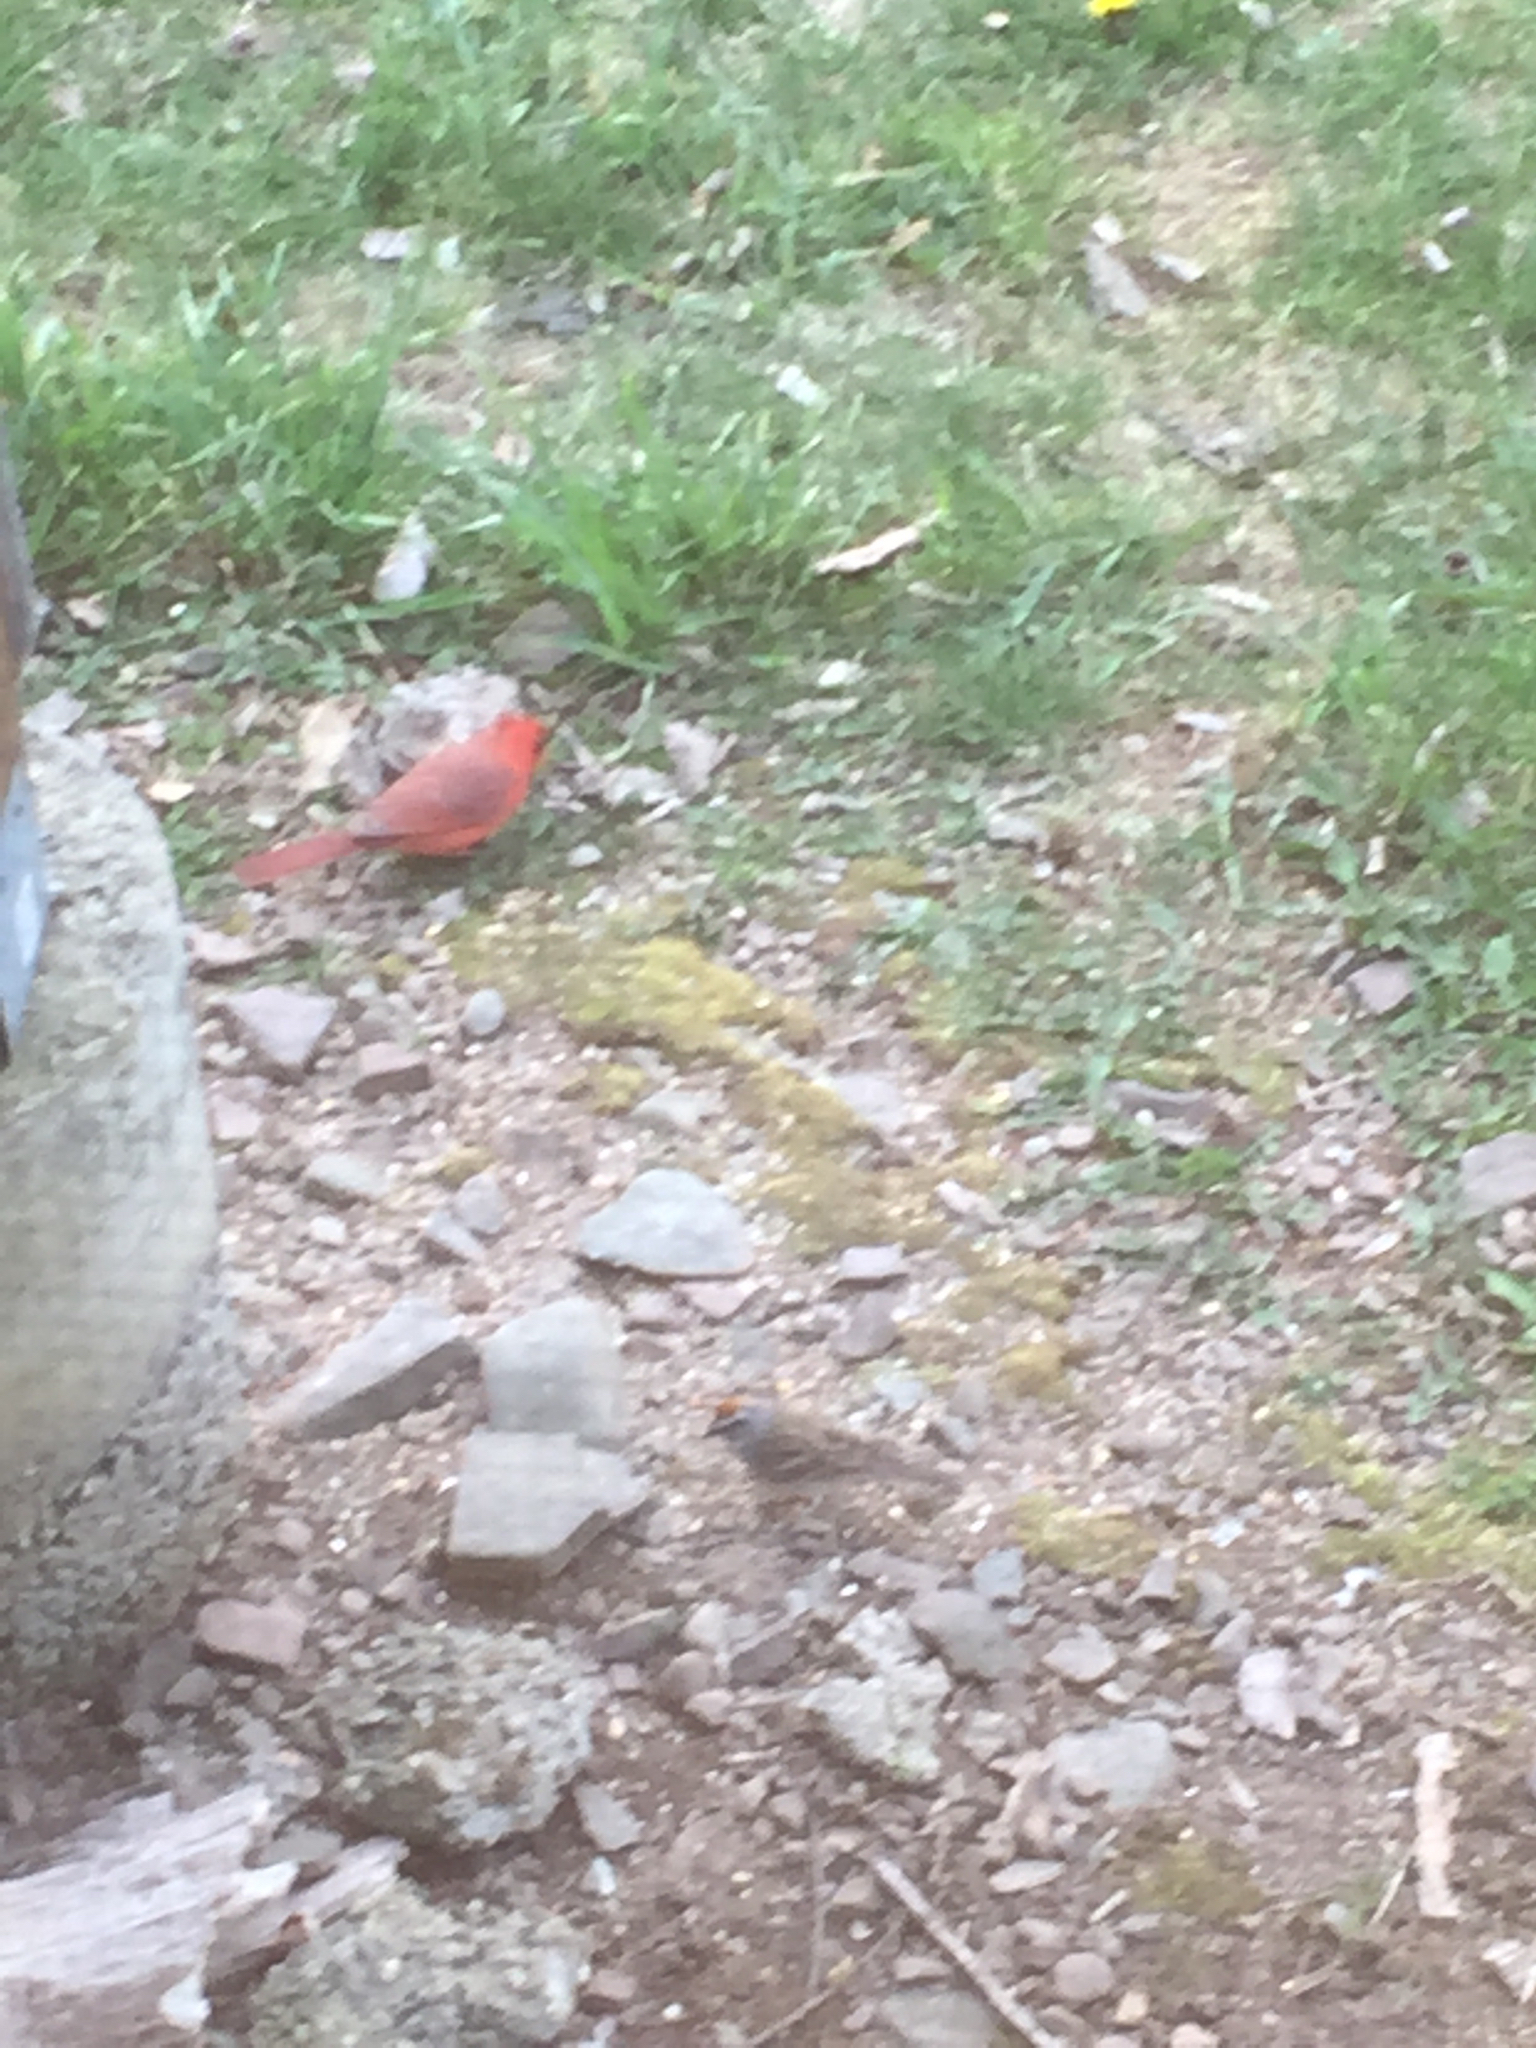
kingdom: Animalia
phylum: Chordata
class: Aves
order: Passeriformes
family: Cardinalidae
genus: Cardinalis
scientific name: Cardinalis cardinalis
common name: Northern cardinal
